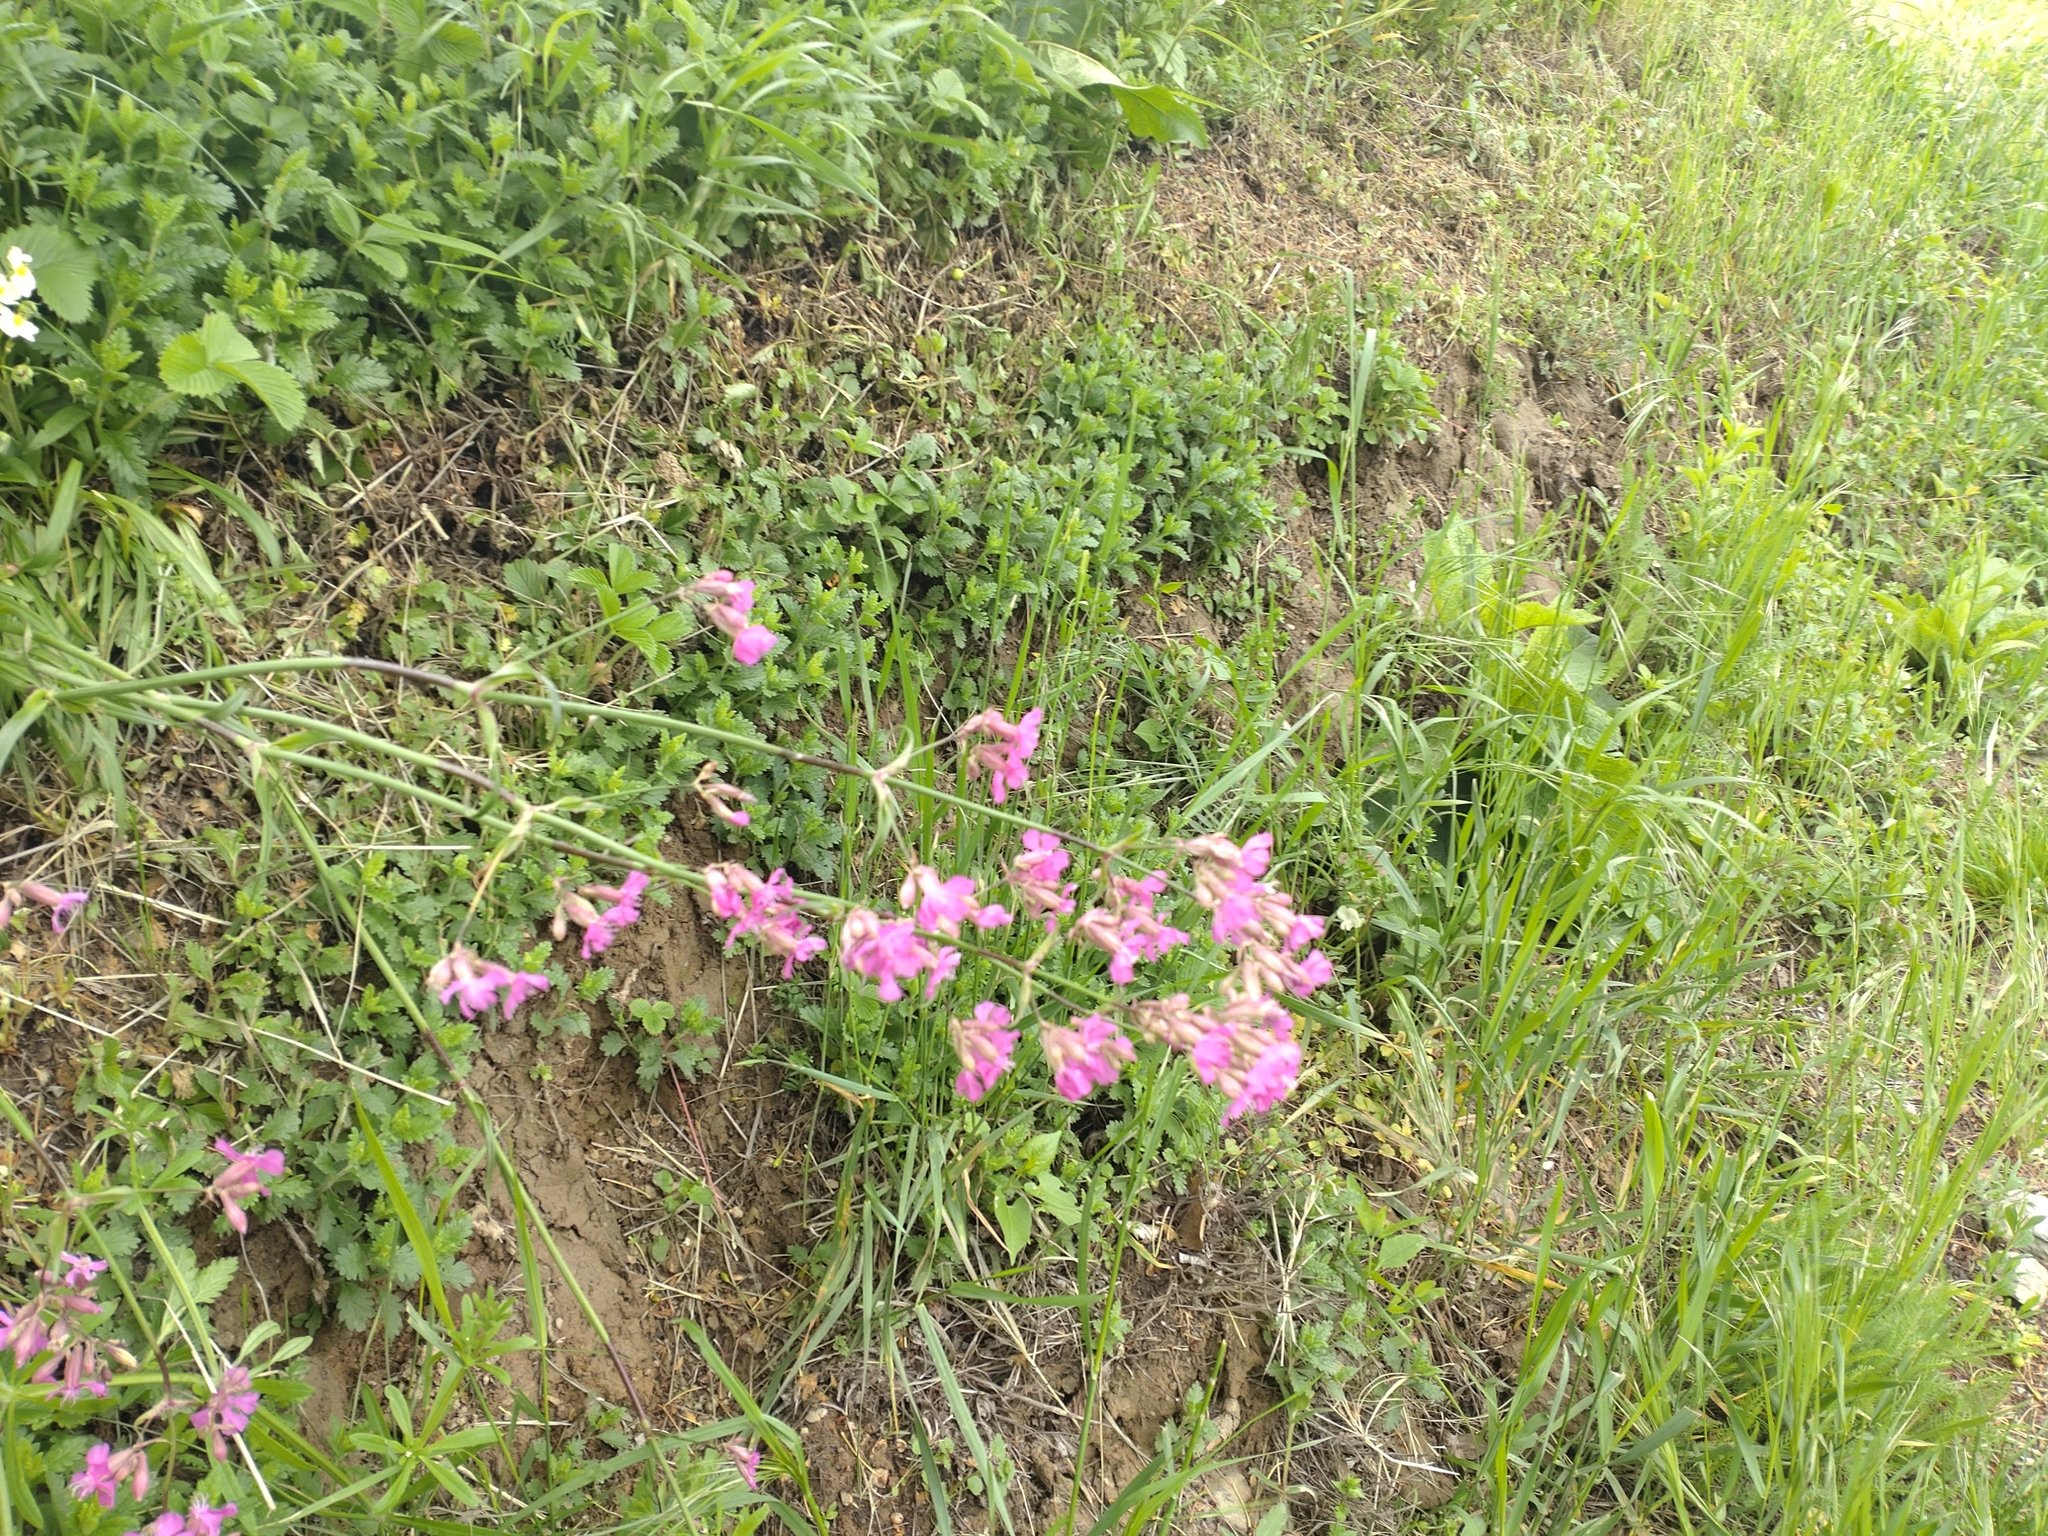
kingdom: Plantae
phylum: Tracheophyta
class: Magnoliopsida
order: Caryophyllales
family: Caryophyllaceae
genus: Viscaria
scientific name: Viscaria vulgaris
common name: Clammy campion
